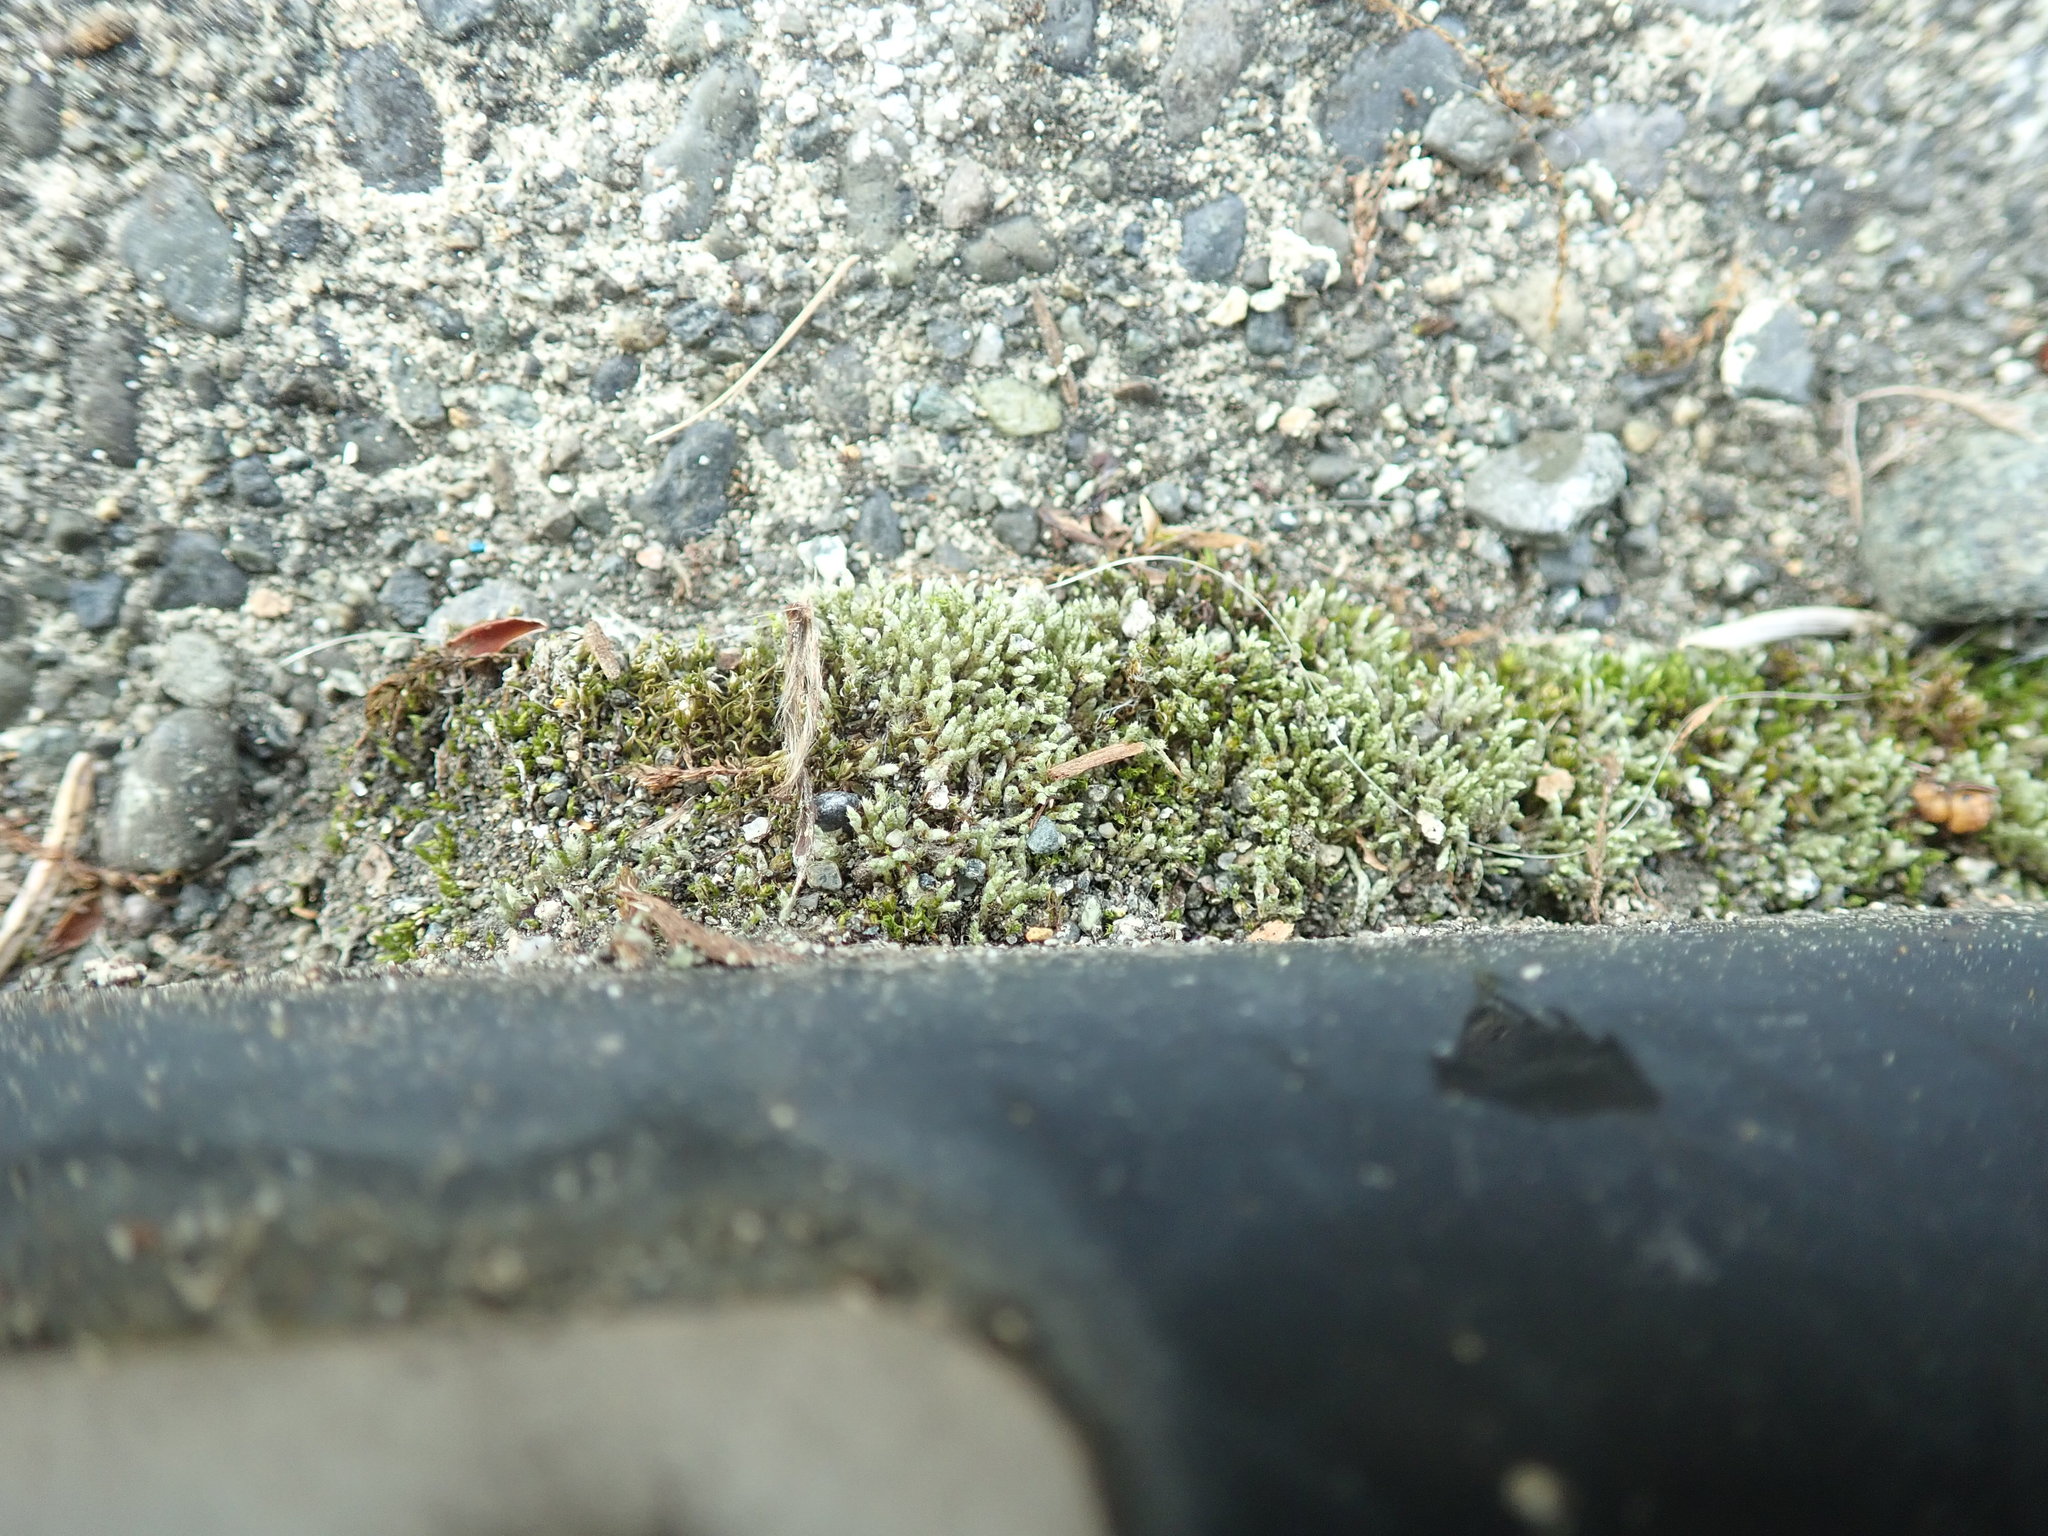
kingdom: Plantae
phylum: Bryophyta
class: Bryopsida
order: Bryales
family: Bryaceae
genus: Bryum
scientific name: Bryum argenteum
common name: Silver-moss
